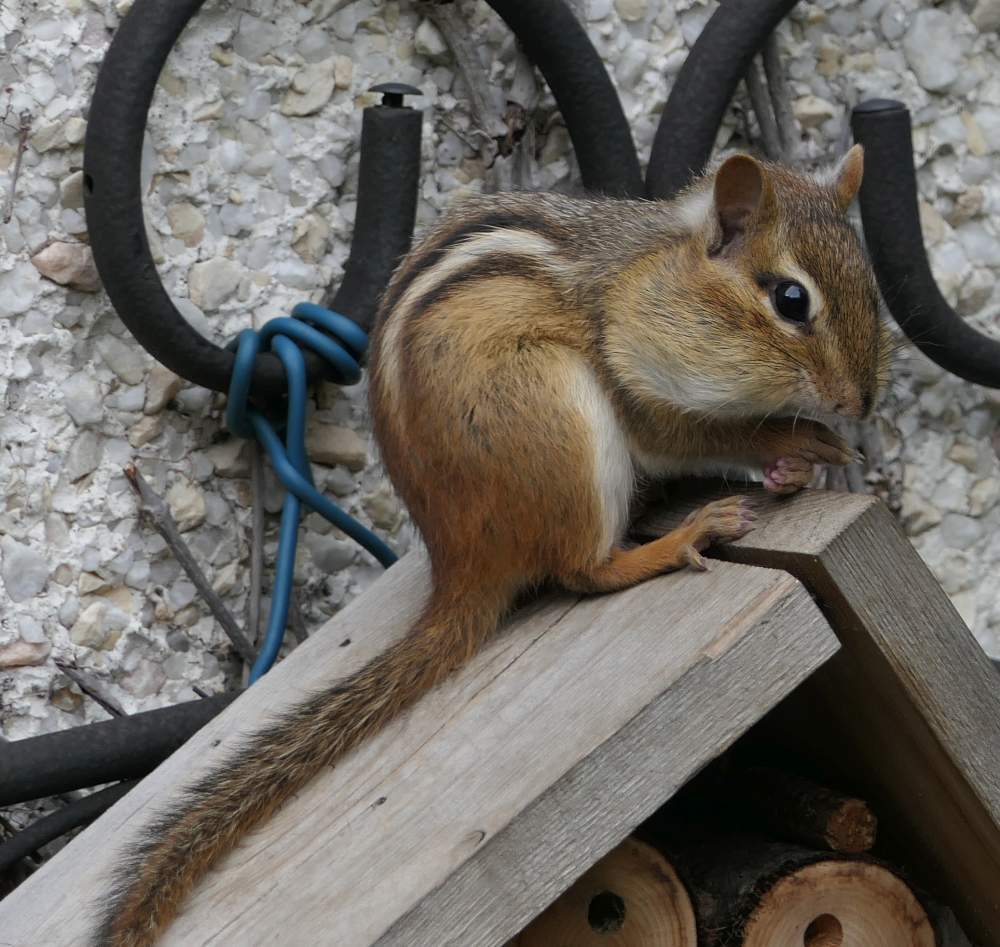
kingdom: Animalia
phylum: Chordata
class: Mammalia
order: Rodentia
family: Sciuridae
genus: Tamias
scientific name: Tamias striatus
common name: Eastern chipmunk
